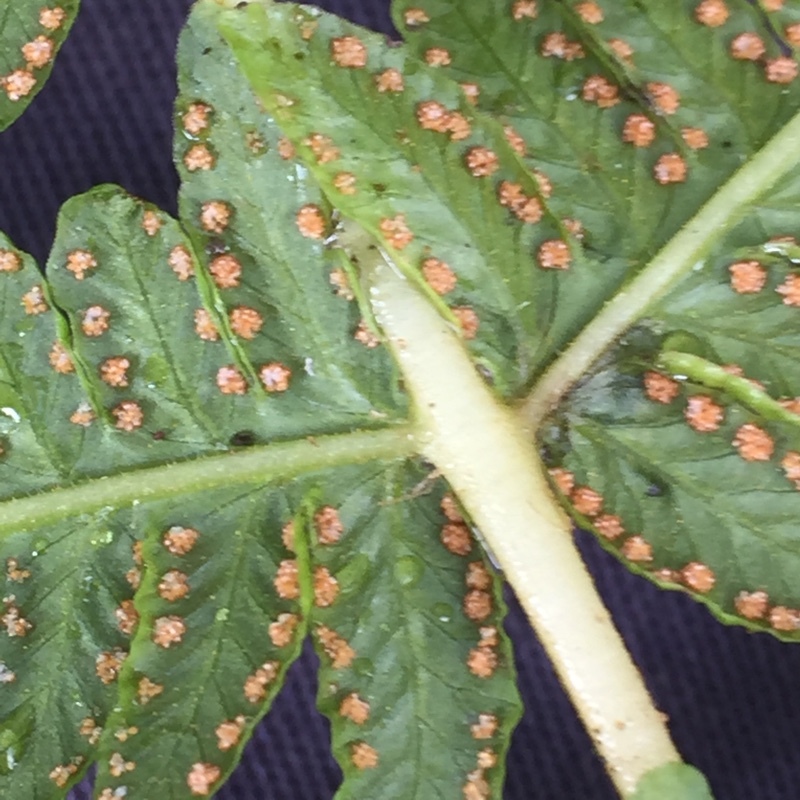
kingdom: Plantae
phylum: Tracheophyta
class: Polypodiopsida
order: Polypodiales
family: Thelypteridaceae
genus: Oreopteris
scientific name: Oreopteris limbosperma
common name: Lemon-scented fern
